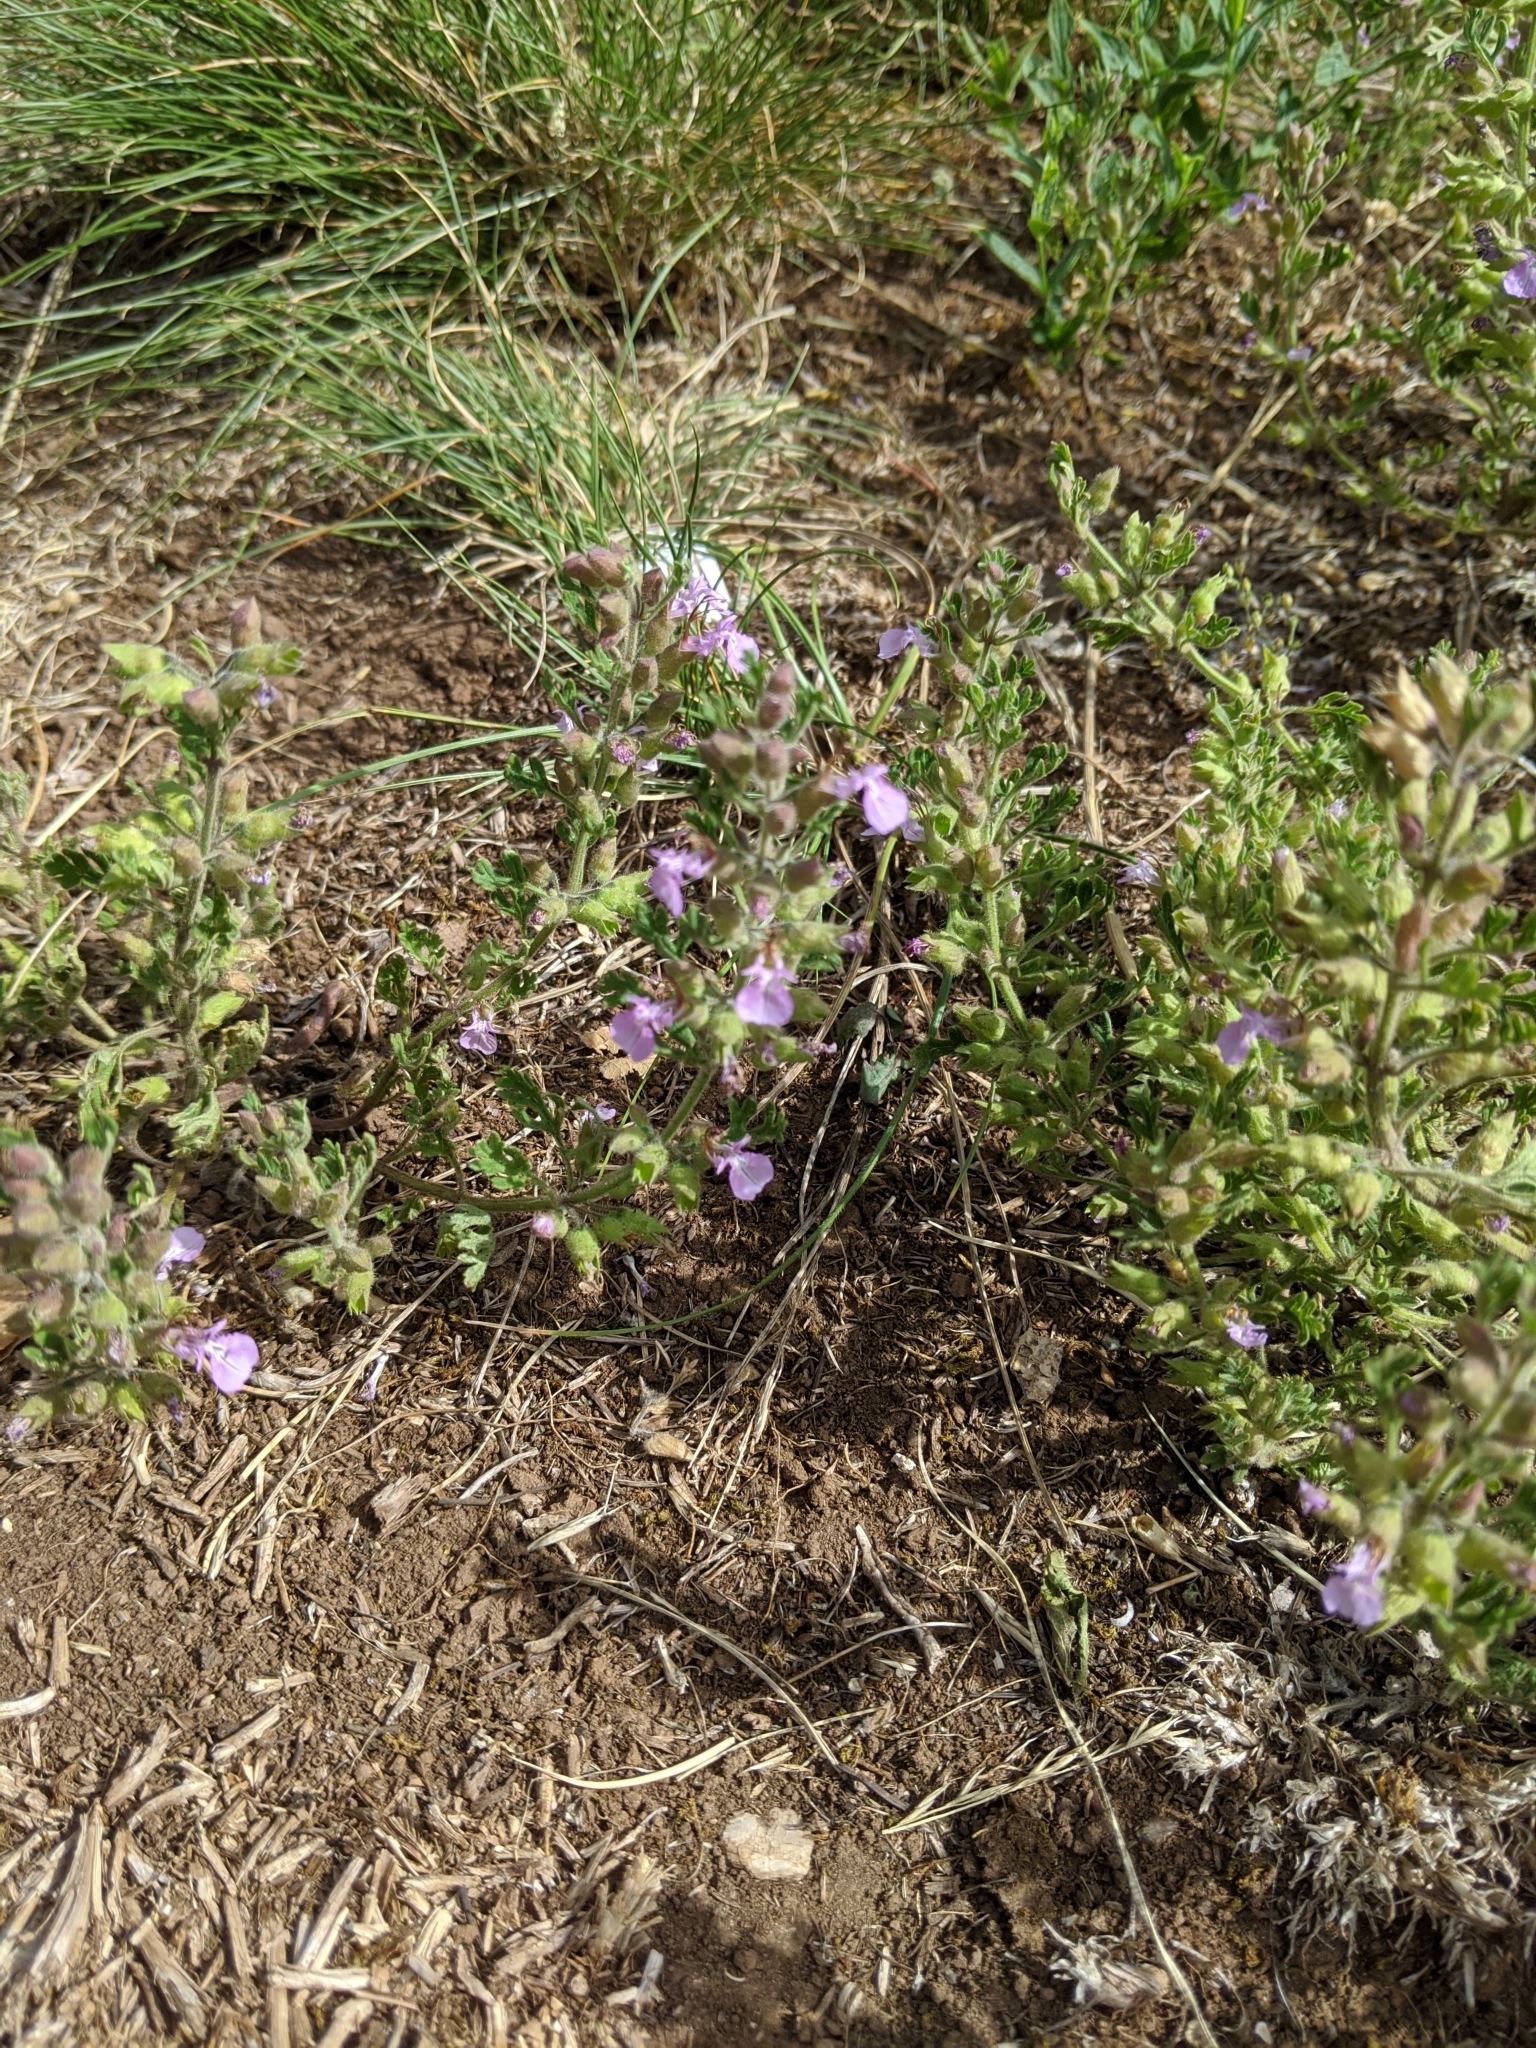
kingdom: Plantae
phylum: Tracheophyta
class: Magnoliopsida
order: Lamiales
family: Lamiaceae
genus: Teucrium
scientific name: Teucrium botrys
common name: Cut-leaved germander
